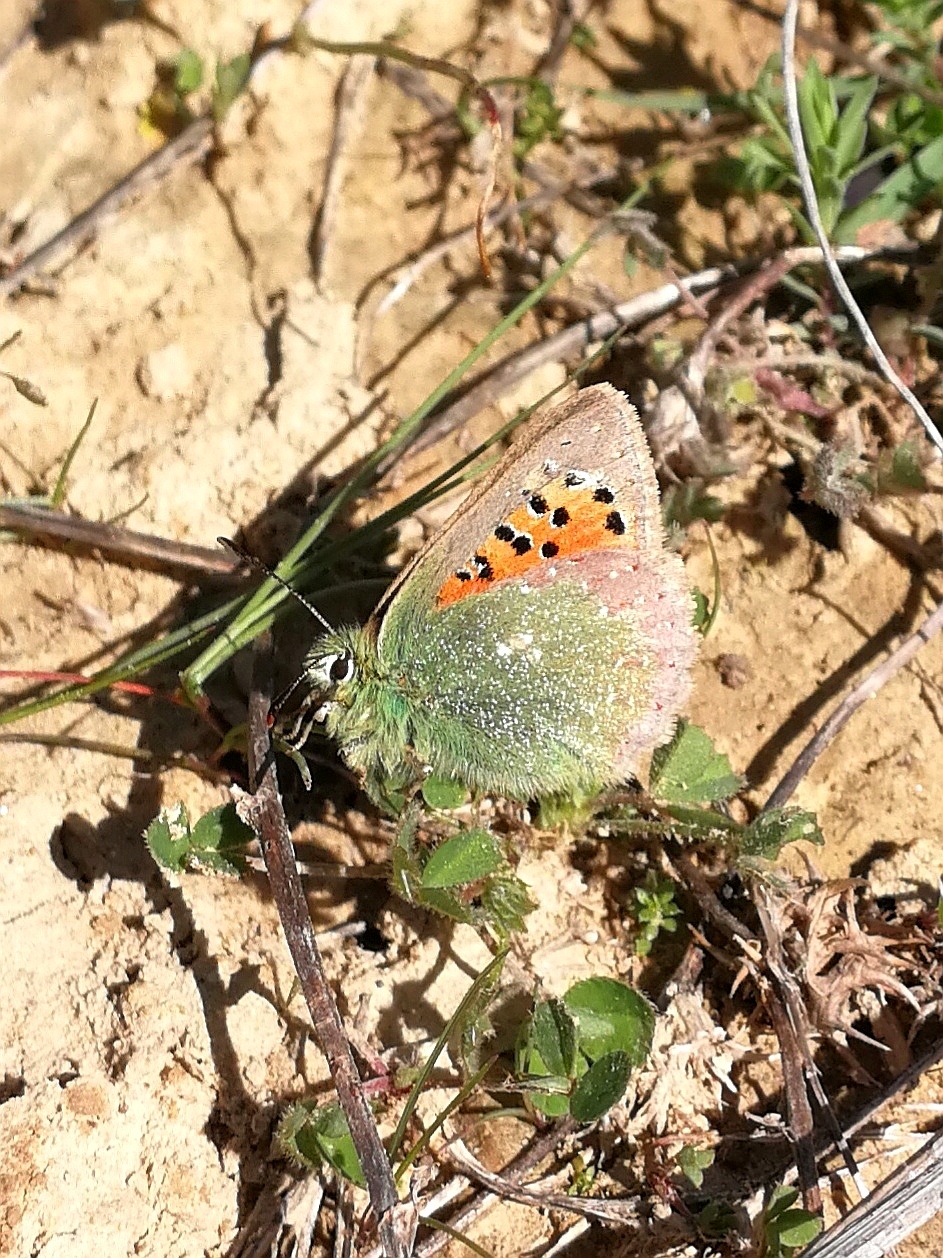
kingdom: Animalia
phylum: Arthropoda
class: Insecta
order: Lepidoptera
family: Lycaenidae
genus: Tomares
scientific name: Tomares ballus
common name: Provence hairstreak
